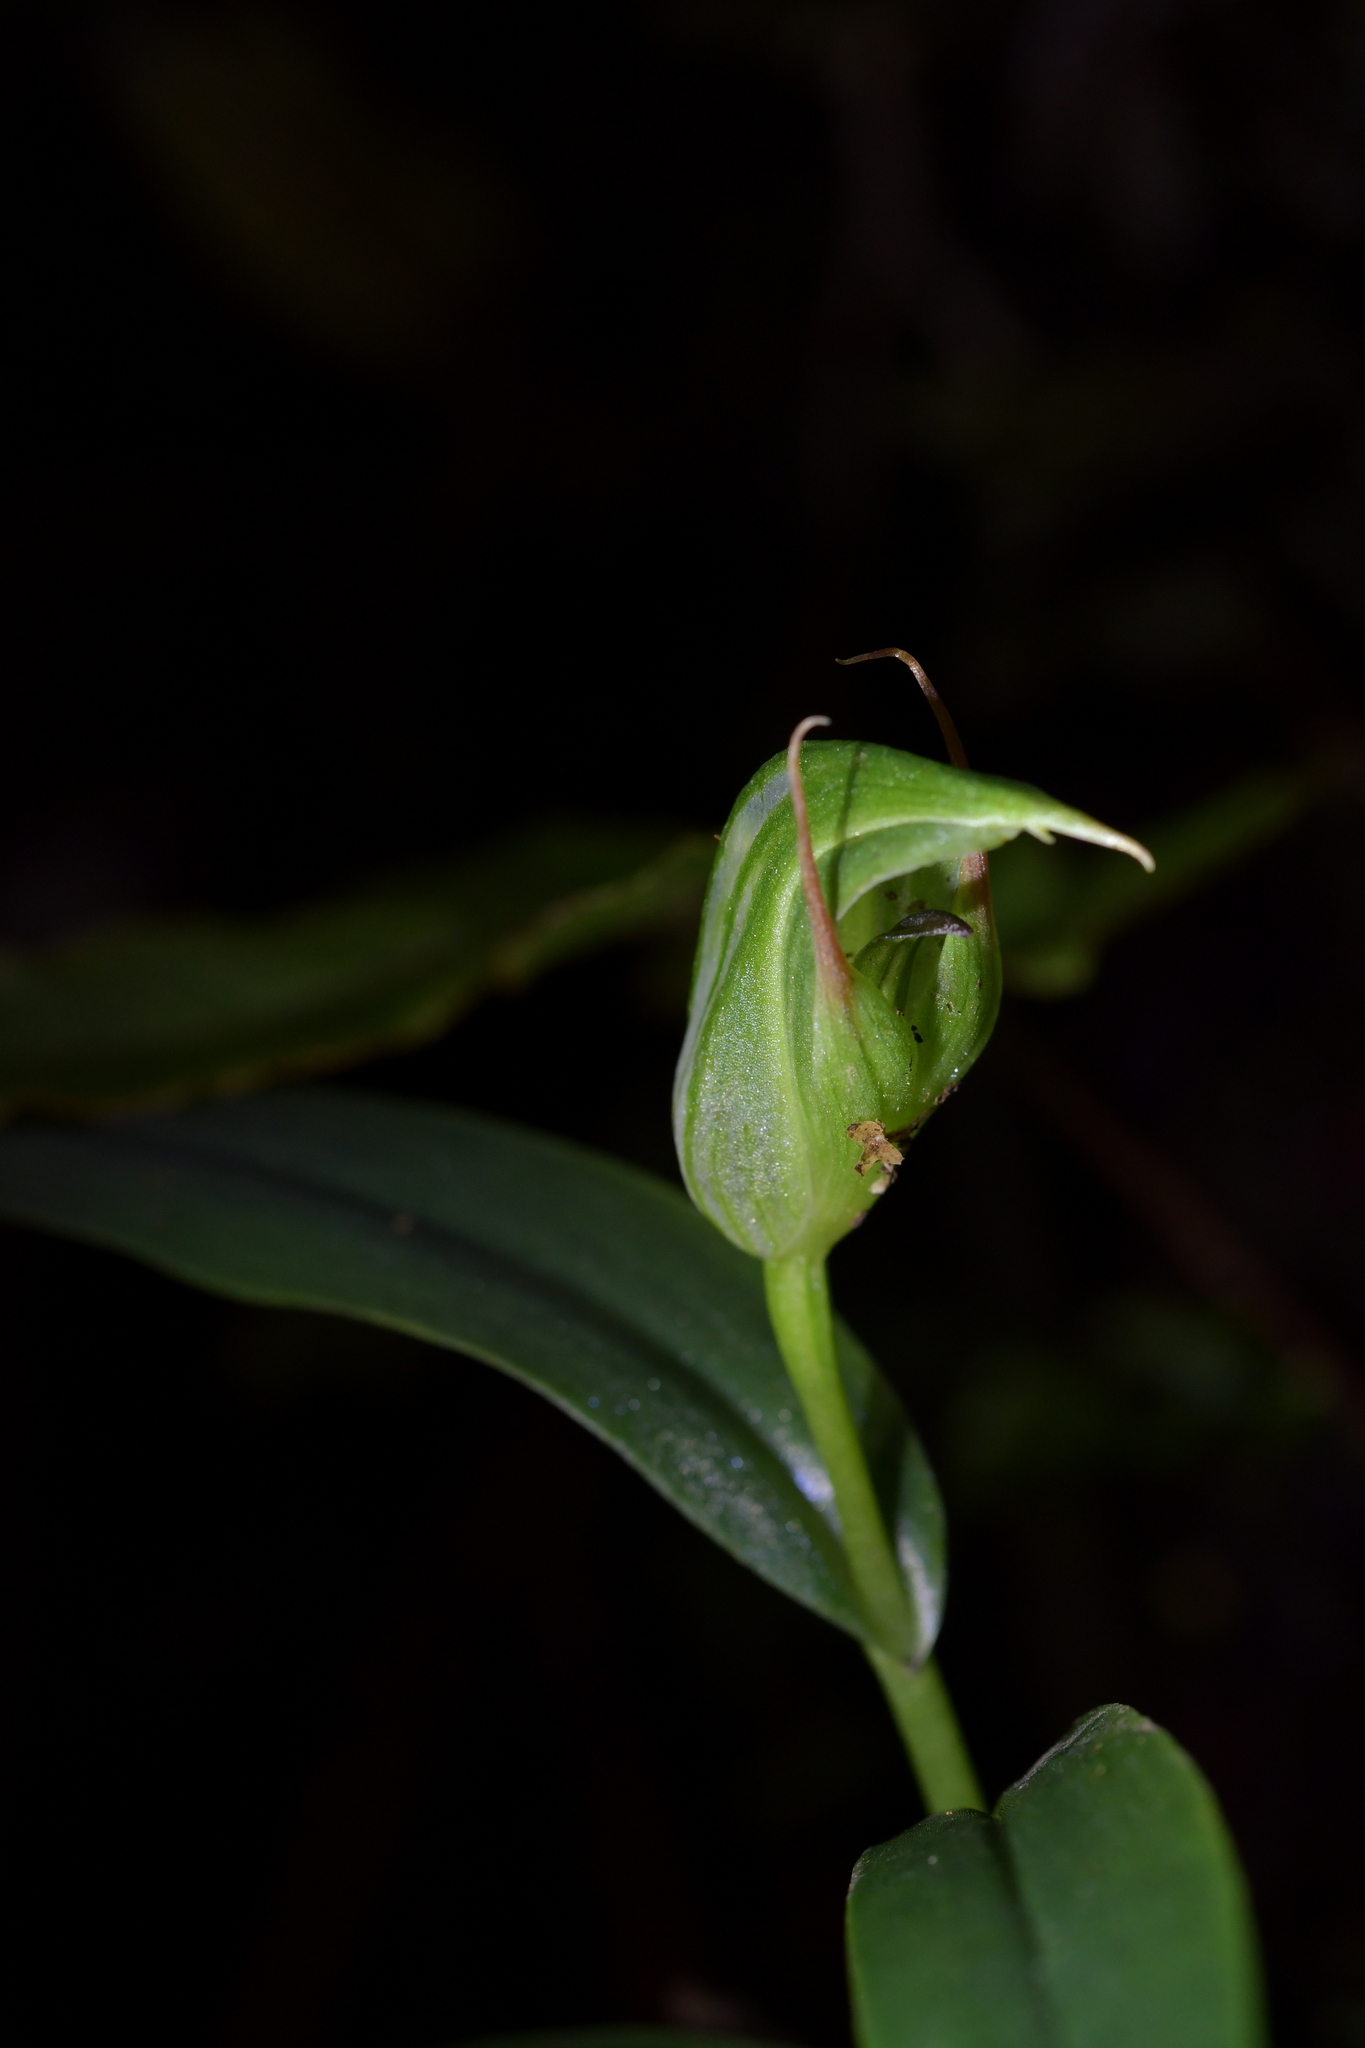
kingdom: Plantae
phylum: Tracheophyta
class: Liliopsida
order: Asparagales
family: Orchidaceae
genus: Pterostylis
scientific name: Pterostylis auriculata
